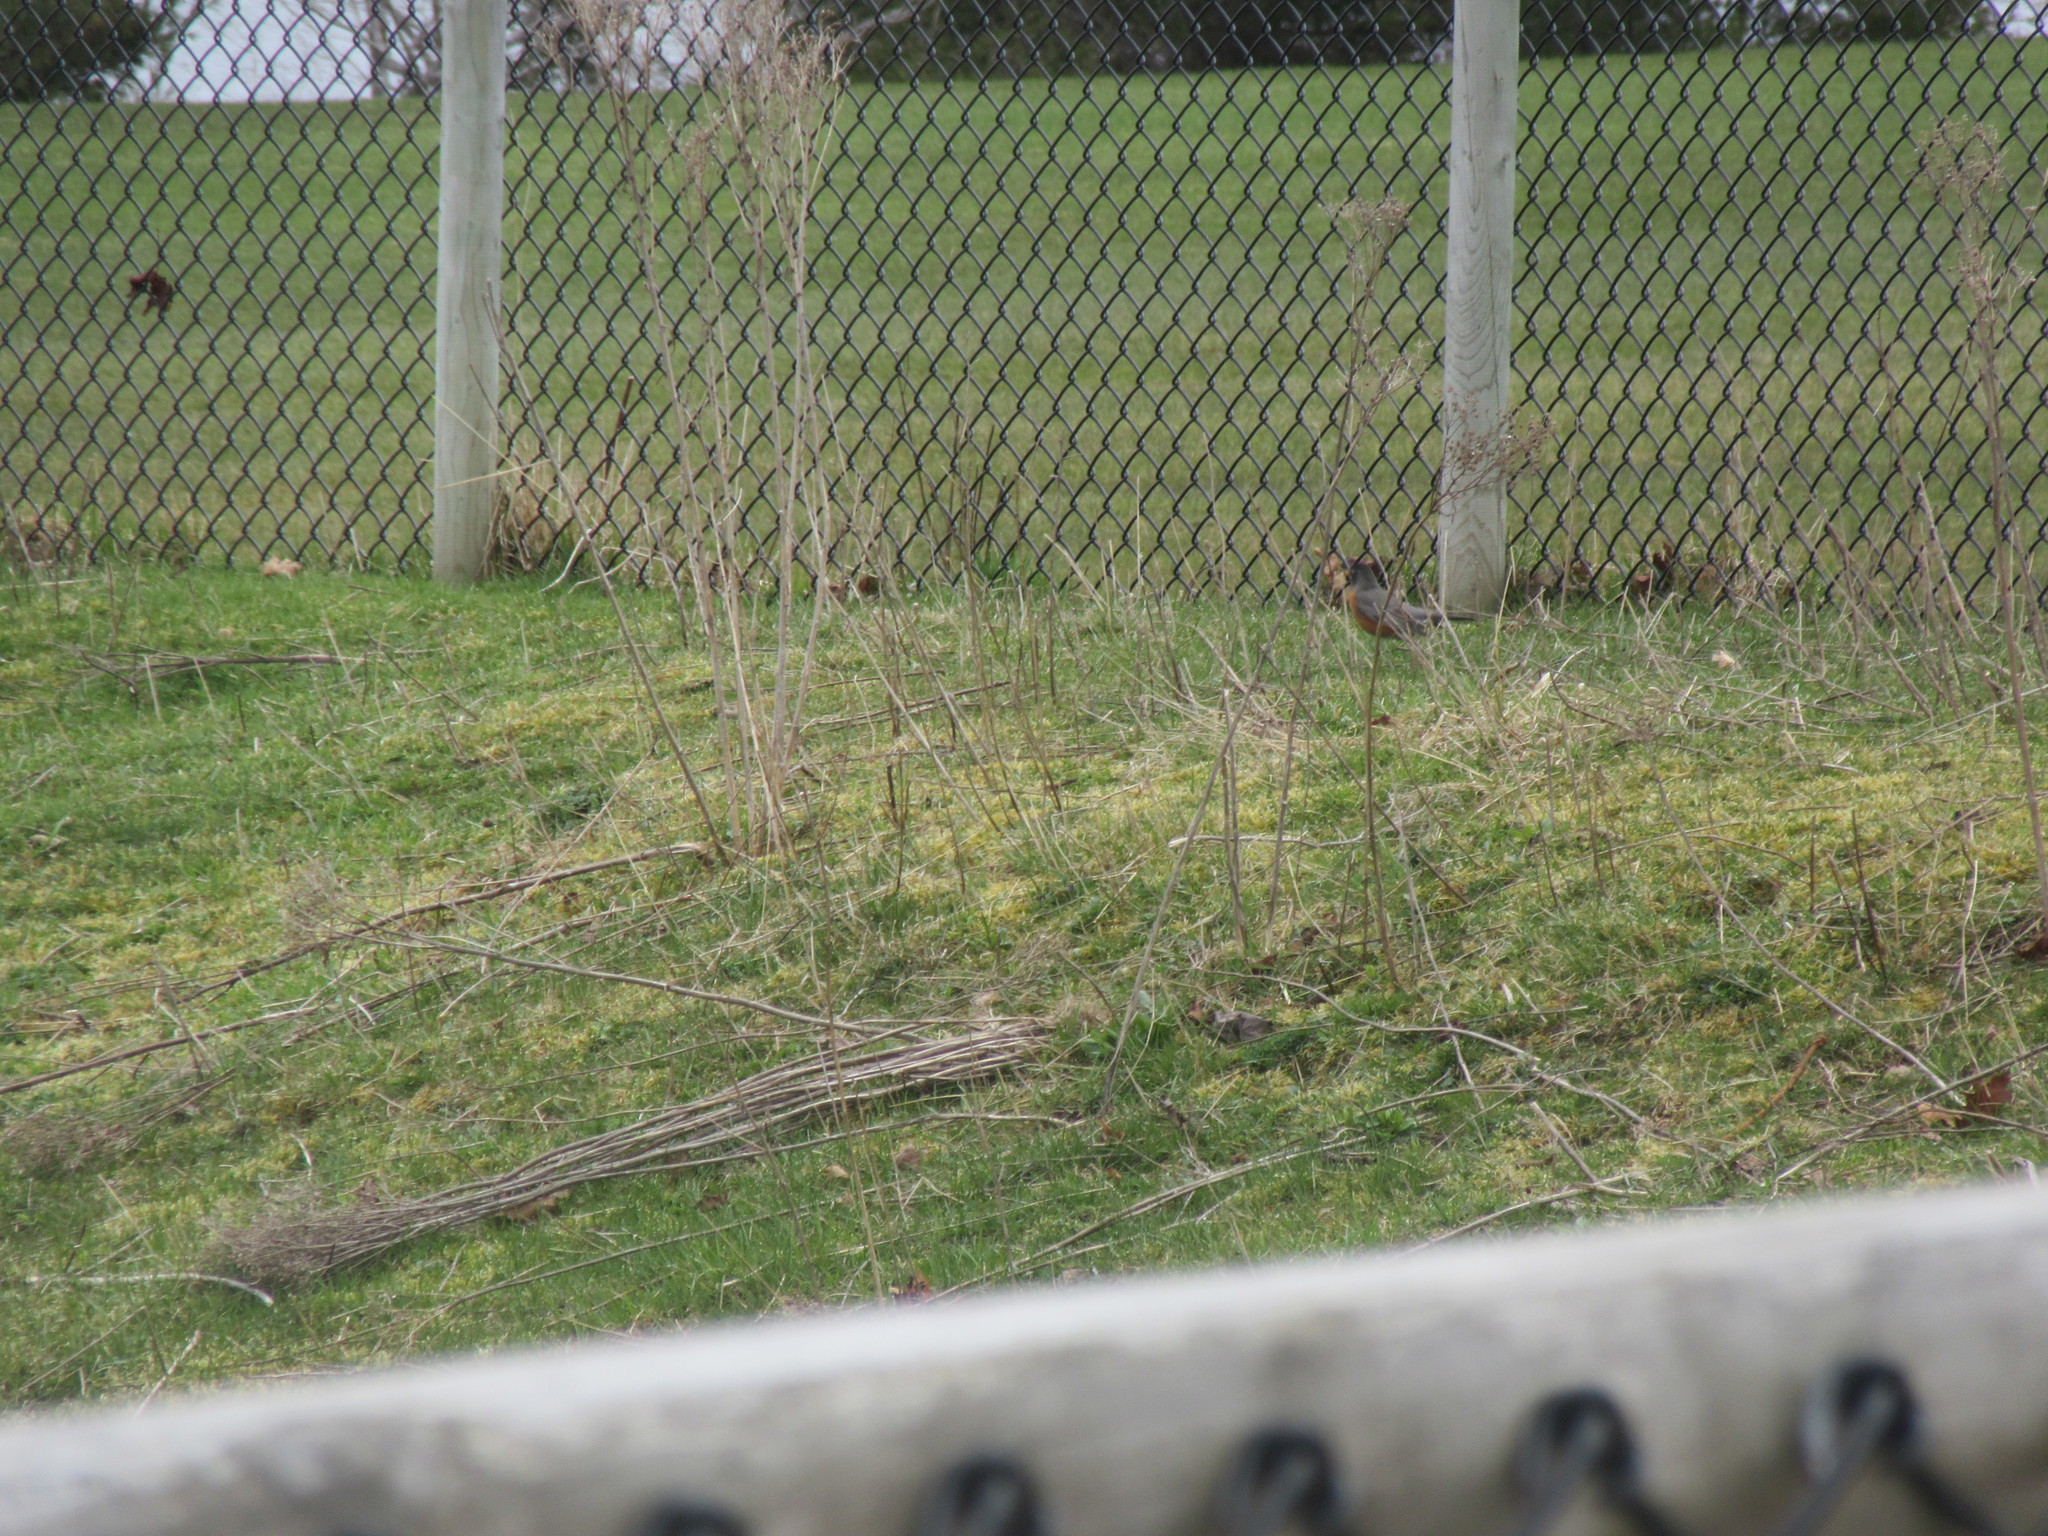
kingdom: Animalia
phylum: Chordata
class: Aves
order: Passeriformes
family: Turdidae
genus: Turdus
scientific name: Turdus migratorius
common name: American robin
